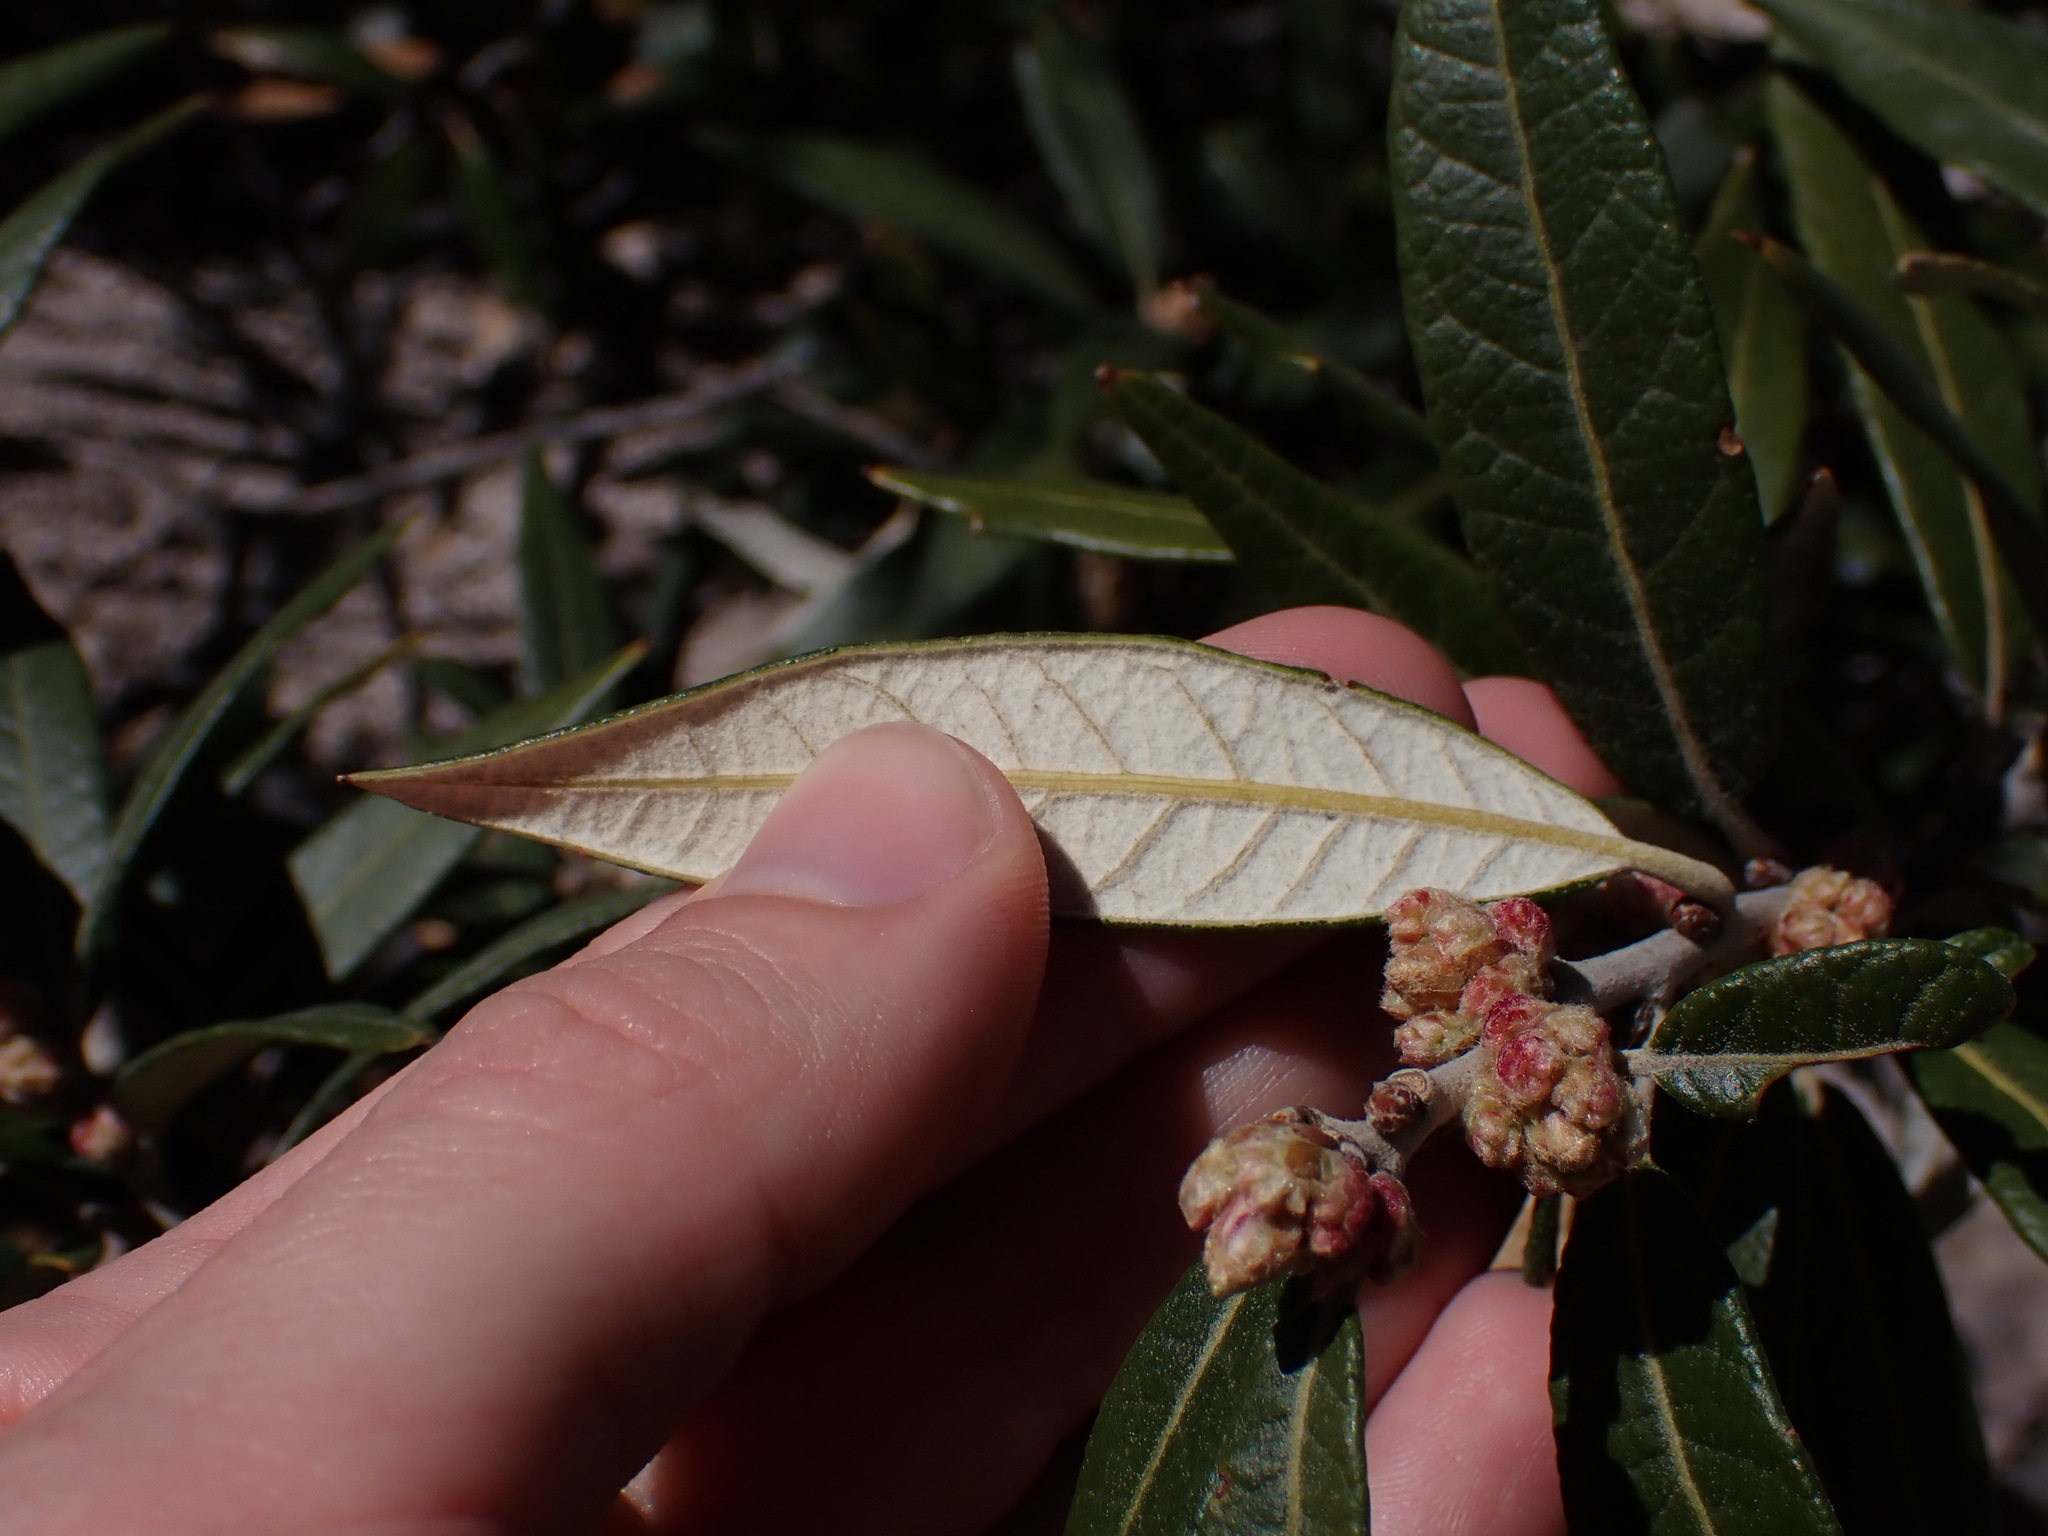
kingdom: Plantae
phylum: Tracheophyta
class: Magnoliopsida
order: Fagales
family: Fagaceae
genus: Quercus
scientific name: Quercus hypoleucoides
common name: Silverleaf oak
